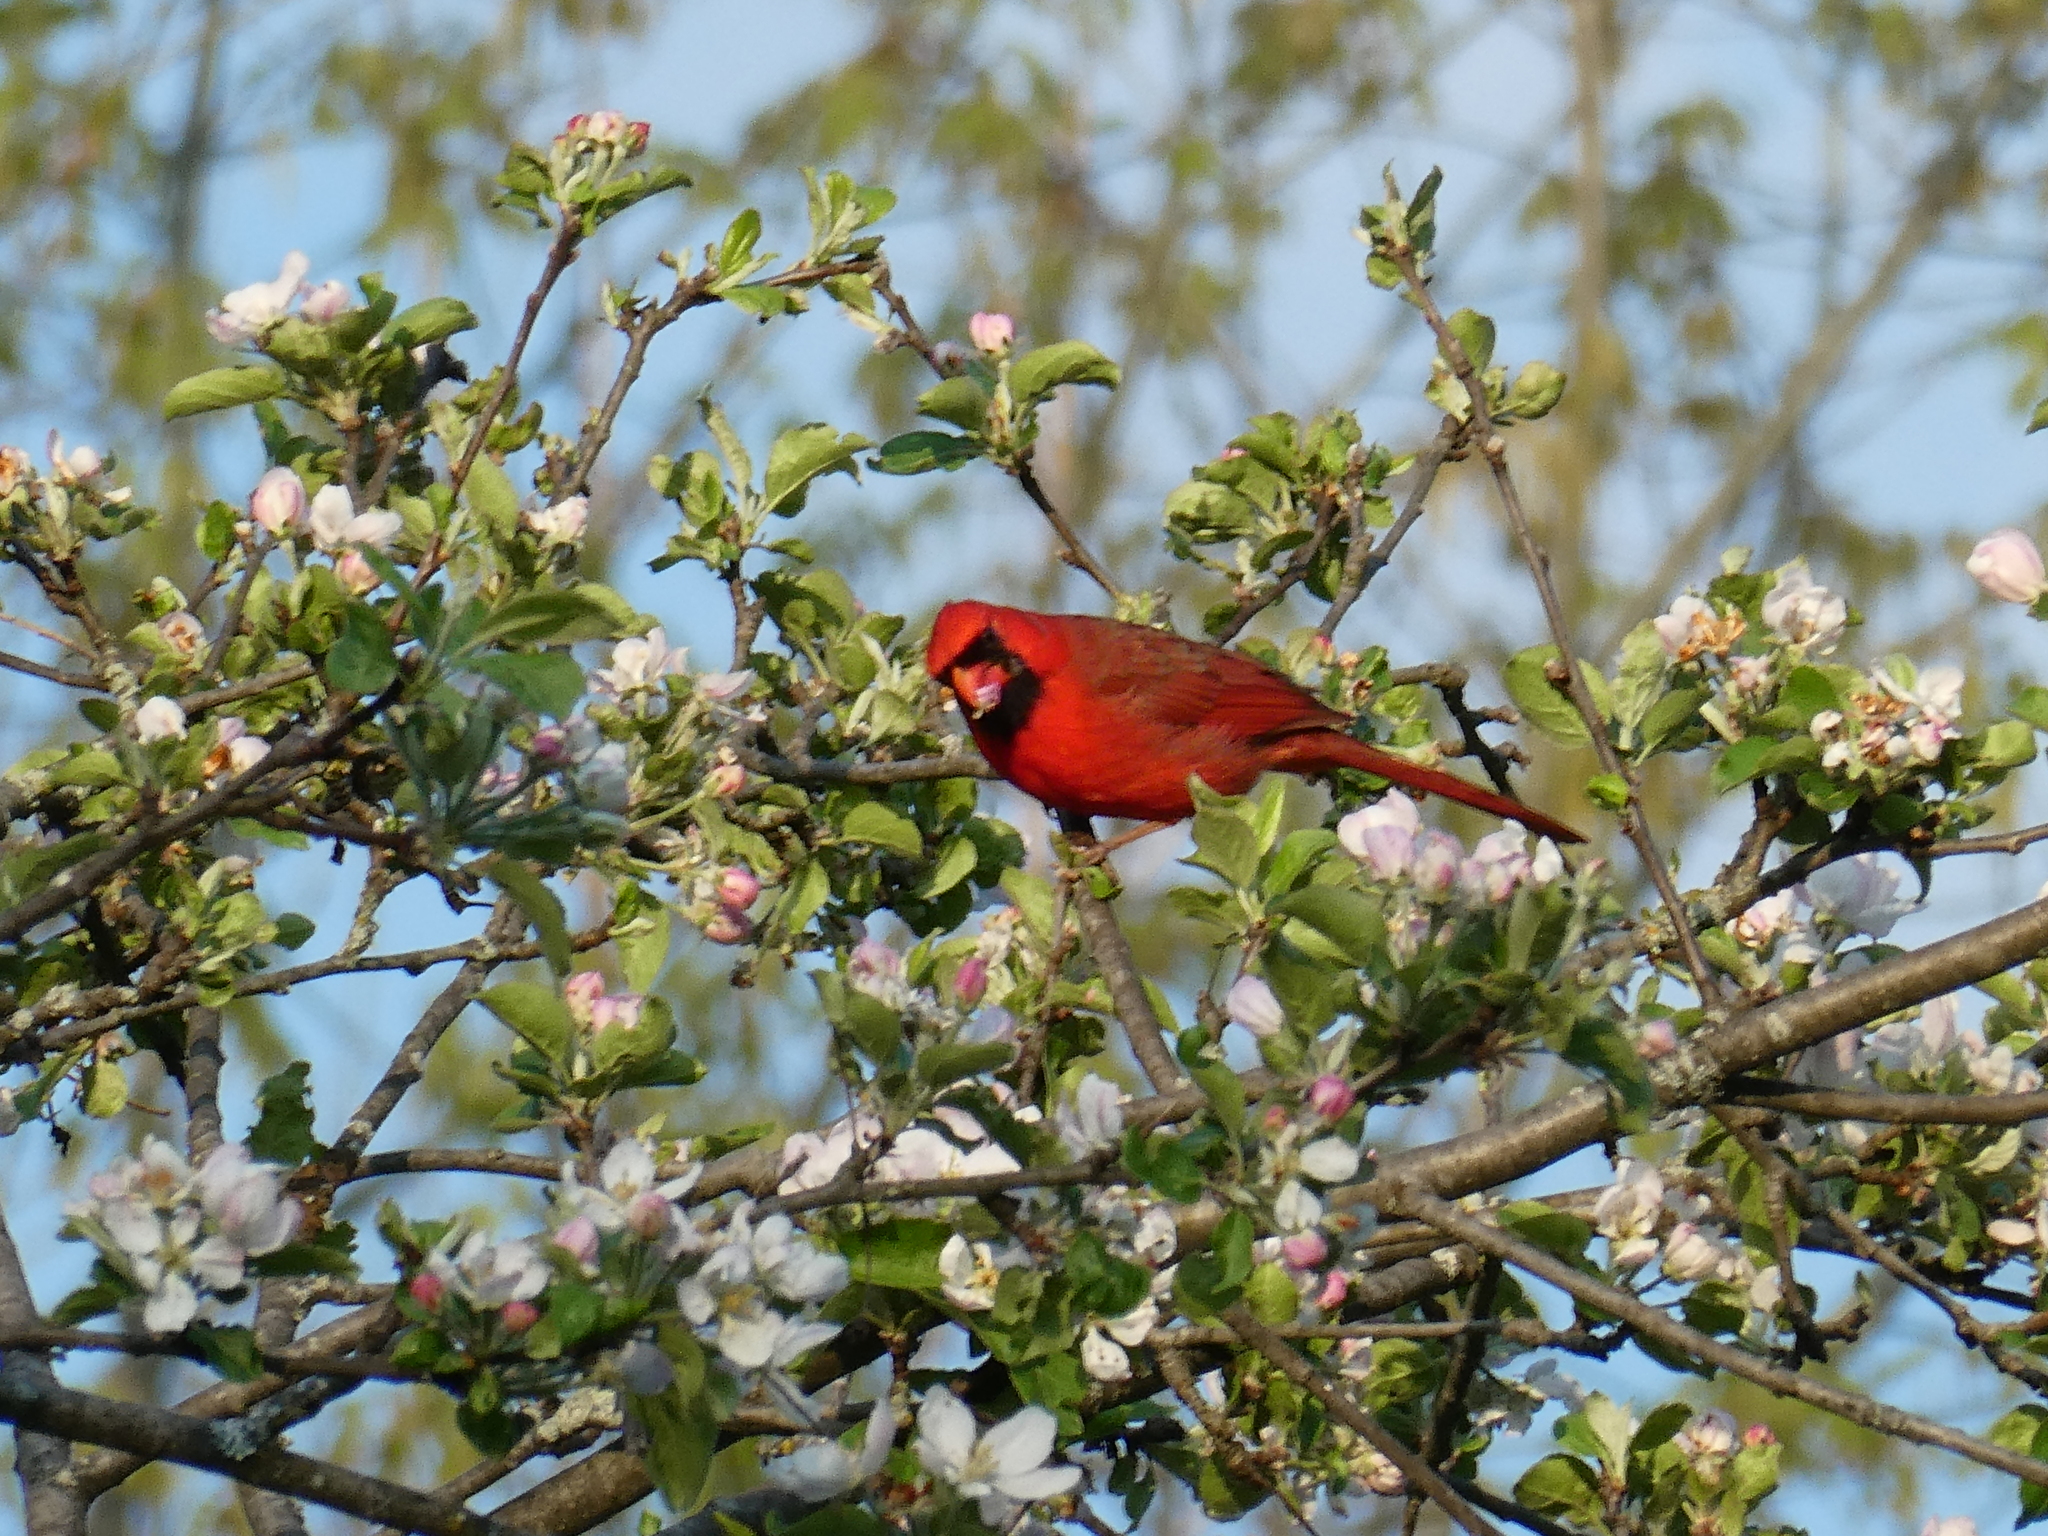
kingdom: Animalia
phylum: Chordata
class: Aves
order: Passeriformes
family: Cardinalidae
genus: Cardinalis
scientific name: Cardinalis cardinalis
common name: Northern cardinal
